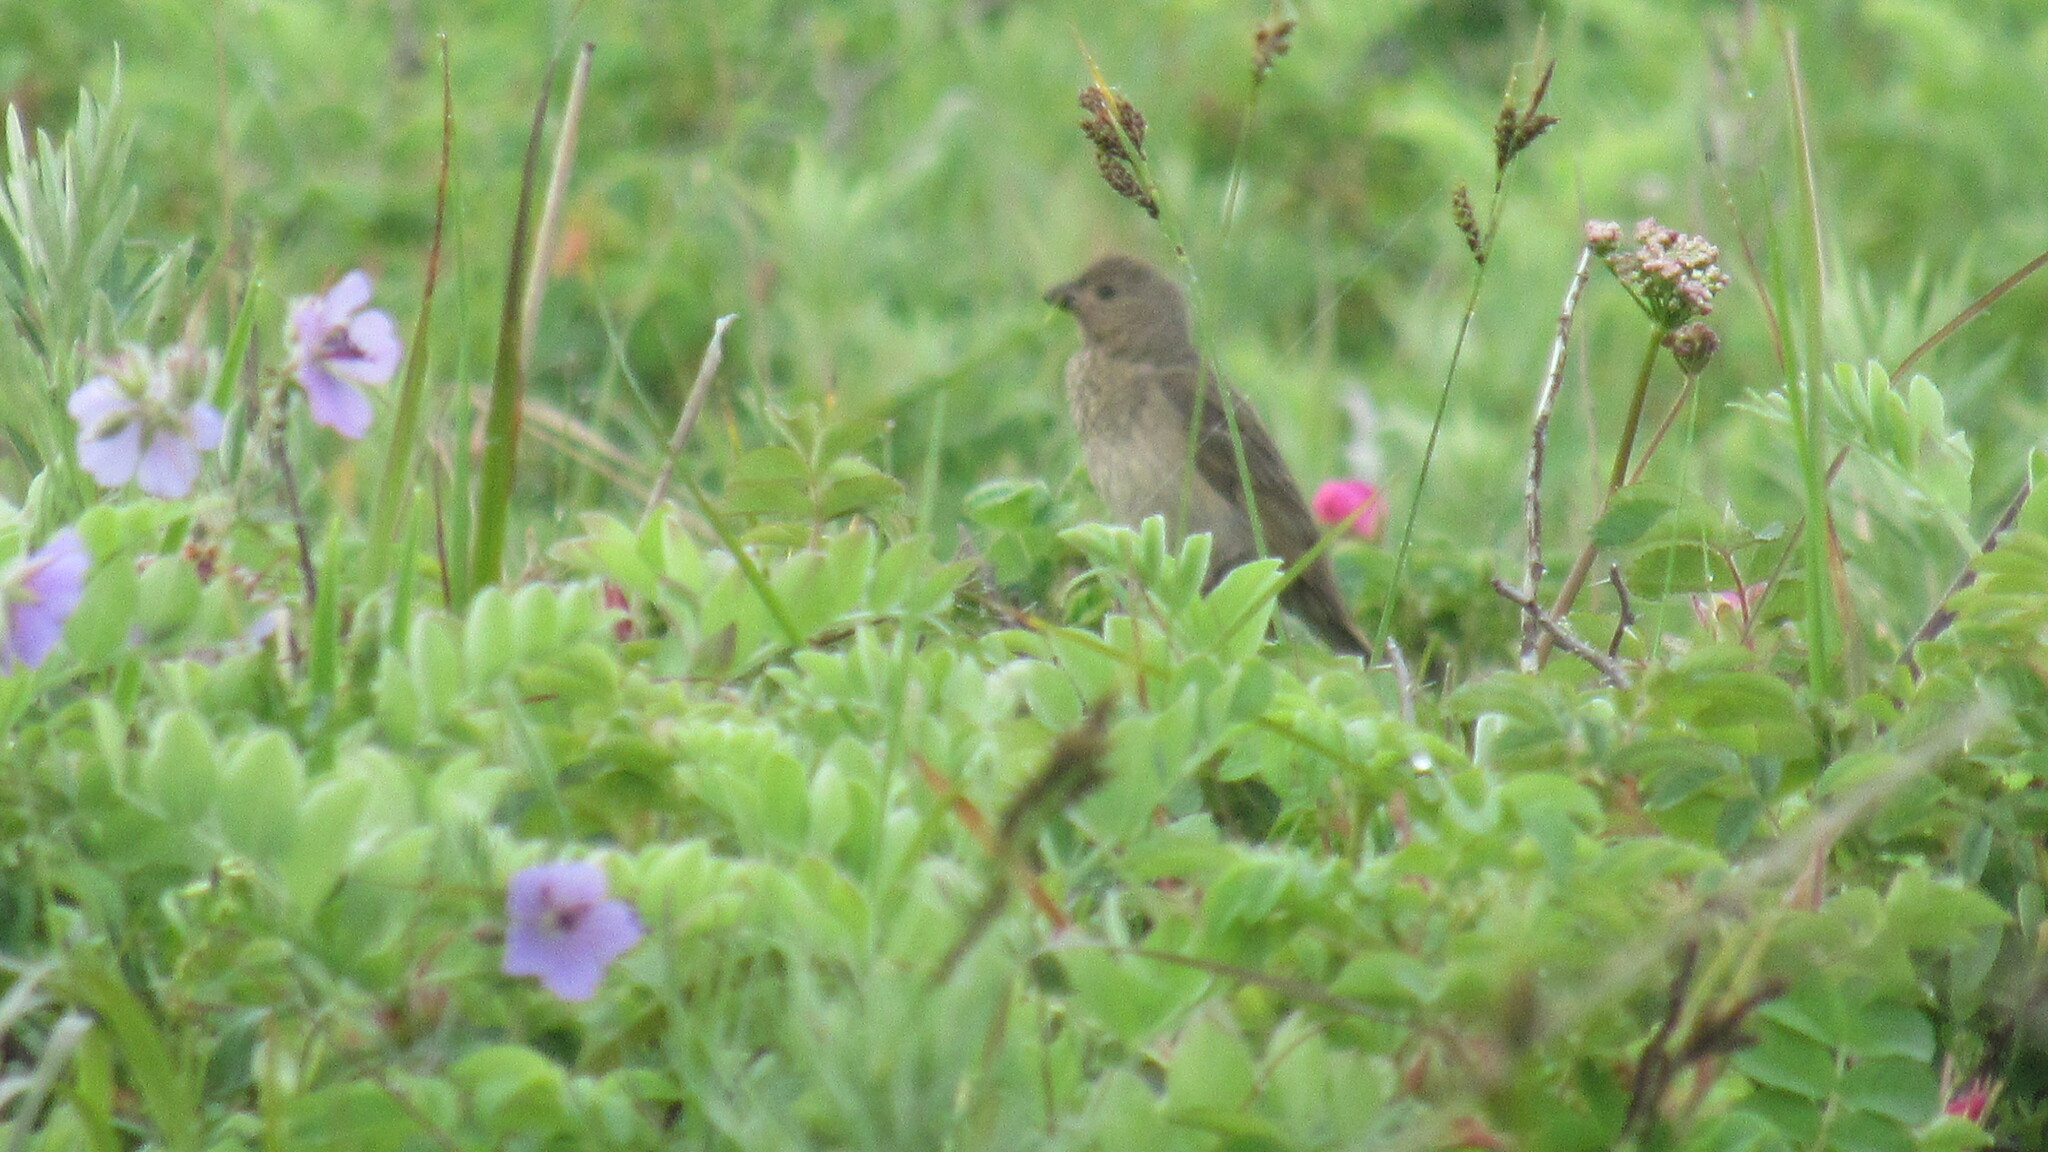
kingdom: Animalia
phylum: Chordata
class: Aves
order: Passeriformes
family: Fringillidae
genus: Carpodacus
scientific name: Carpodacus erythrinus
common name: Common rosefinch
